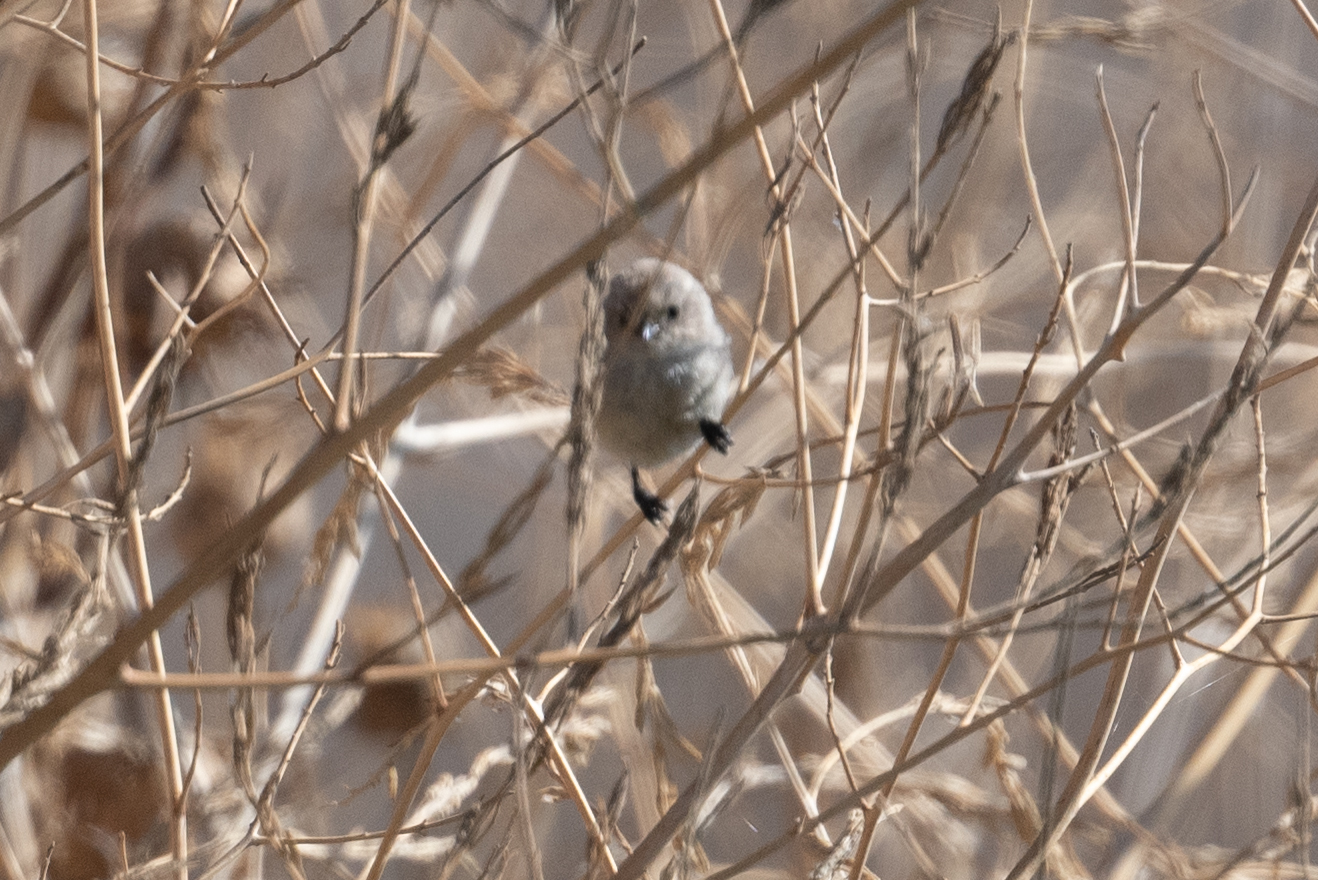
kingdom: Animalia
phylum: Chordata
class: Aves
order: Passeriformes
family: Aegithalidae
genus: Psaltriparus
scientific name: Psaltriparus minimus
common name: American bushtit
